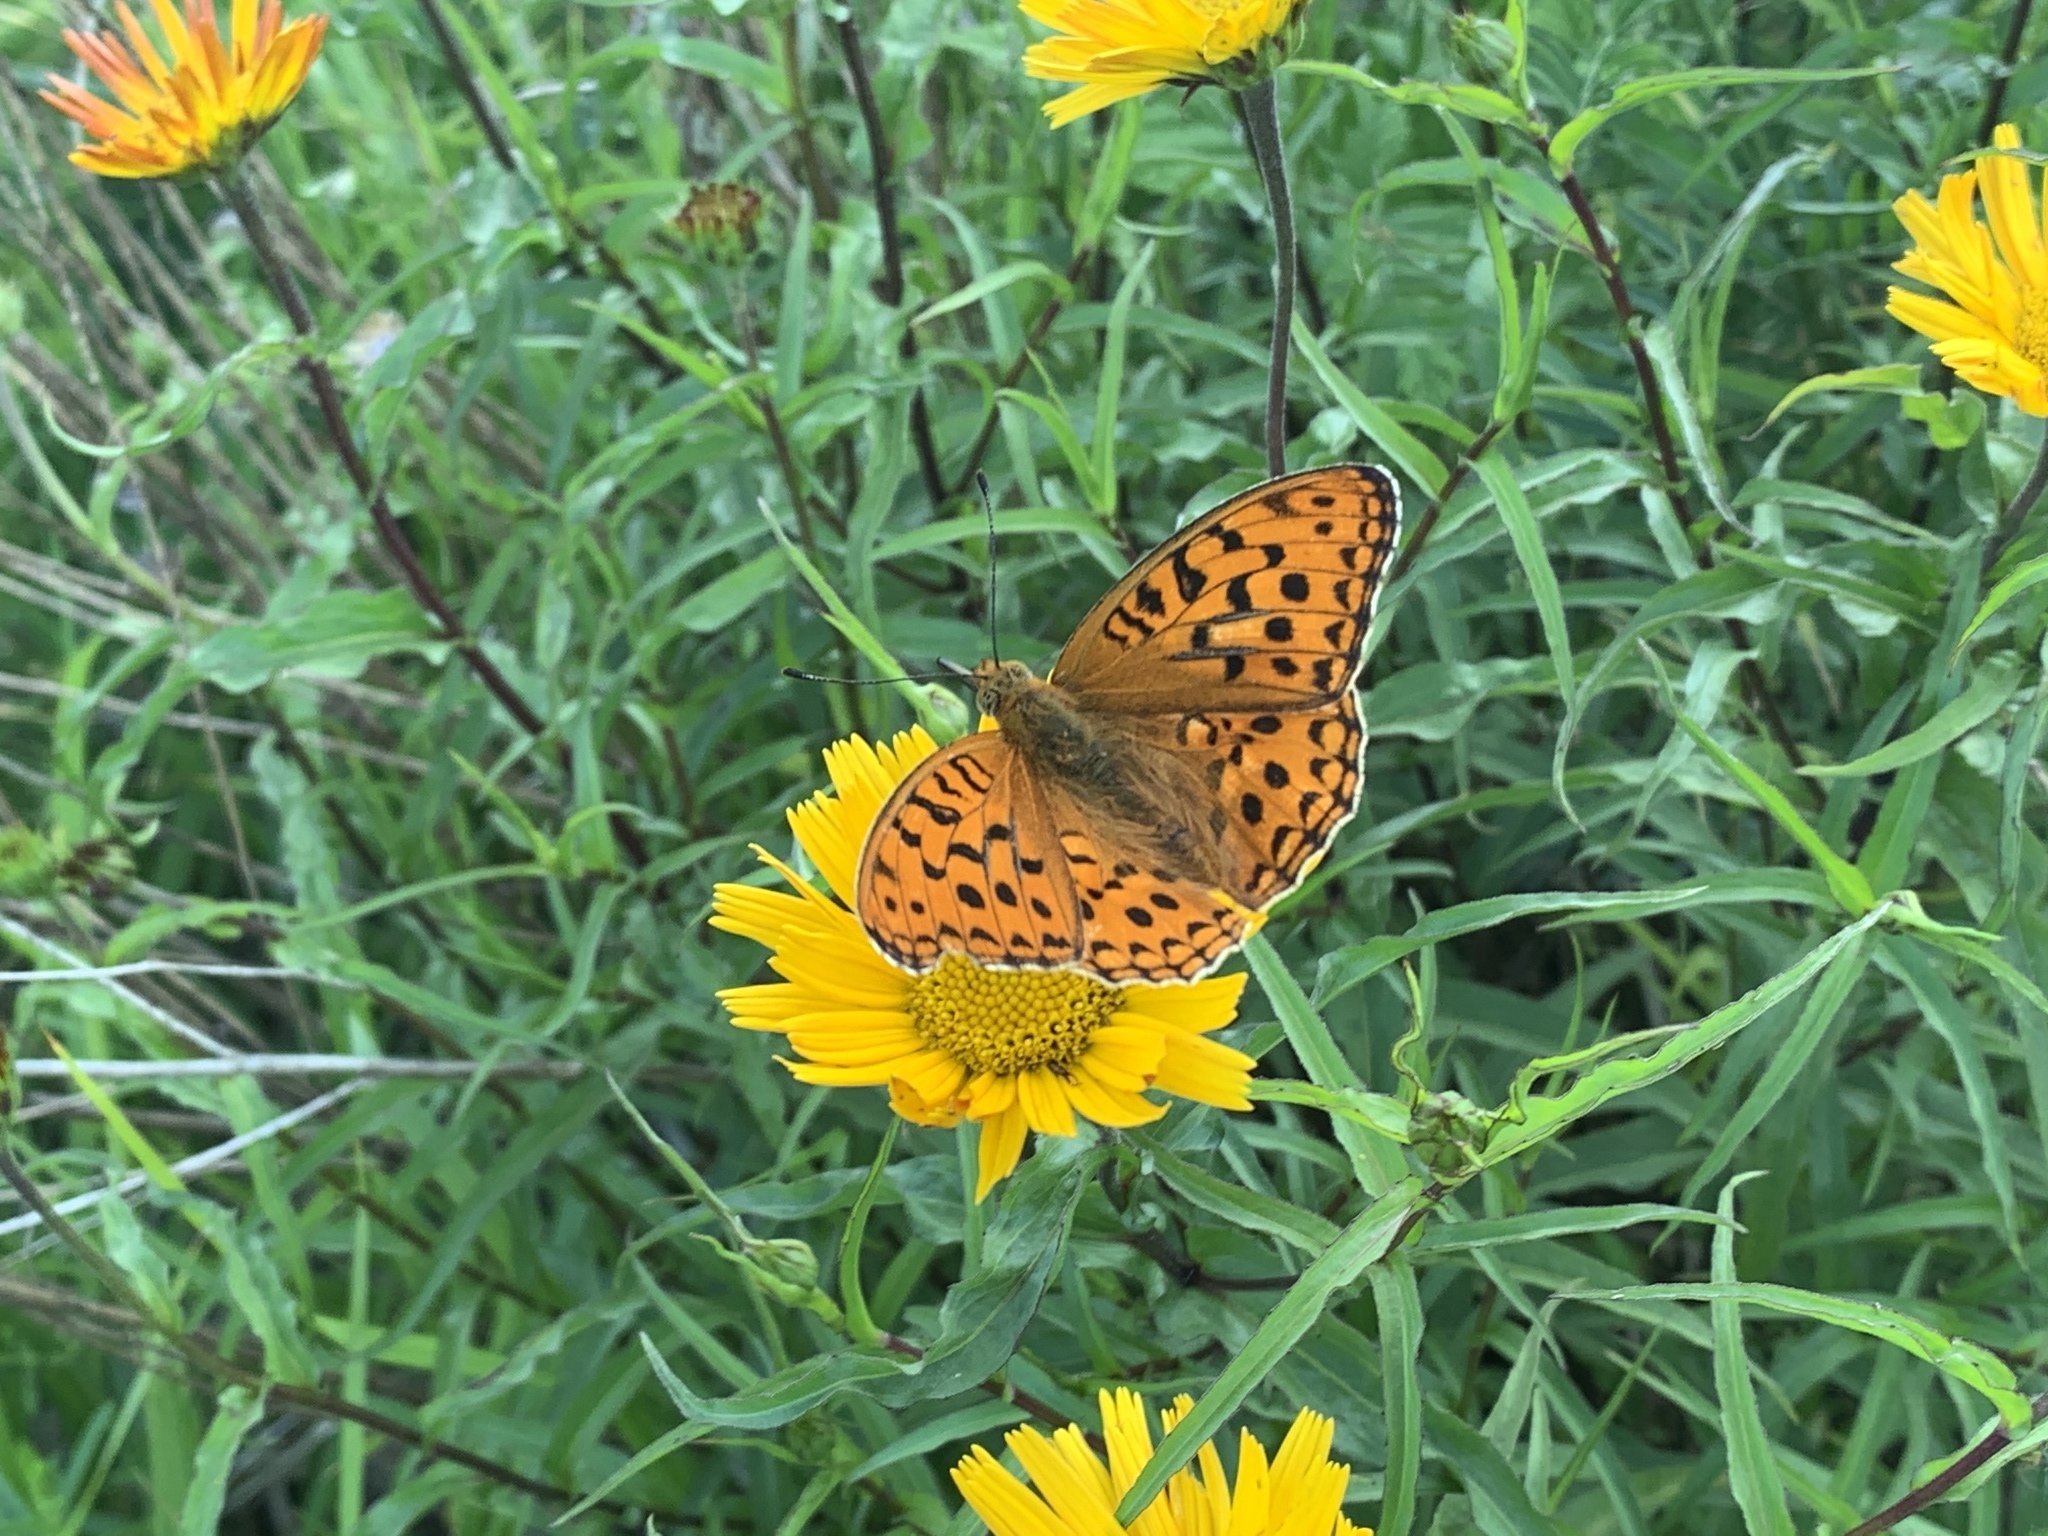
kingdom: Animalia
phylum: Arthropoda
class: Insecta
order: Lepidoptera
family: Nymphalidae
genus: Fabriciana
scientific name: Fabriciana adippe
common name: High brown fritillary
